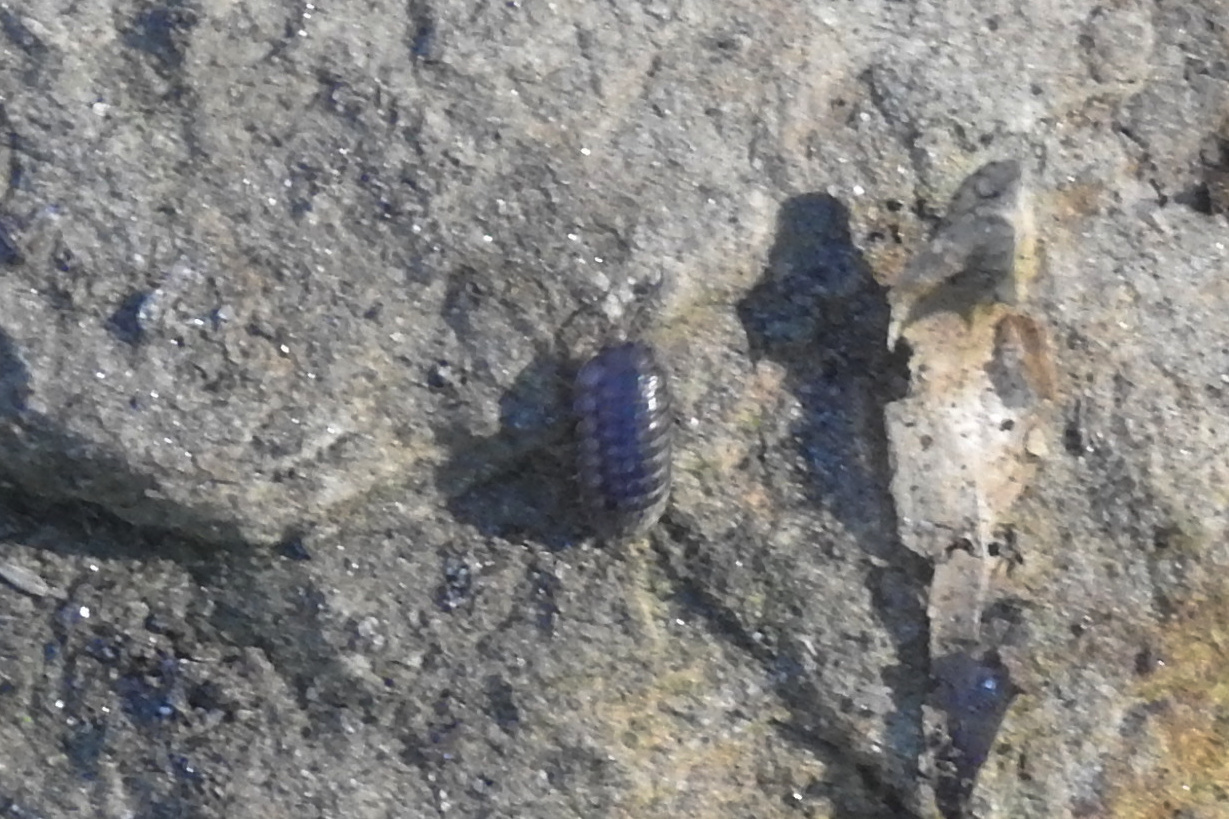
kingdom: Animalia
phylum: Arthropoda
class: Malacostraca
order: Isopoda
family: Armadillidiidae
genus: Armadillidium
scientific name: Armadillidium nasatum
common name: Isopod
